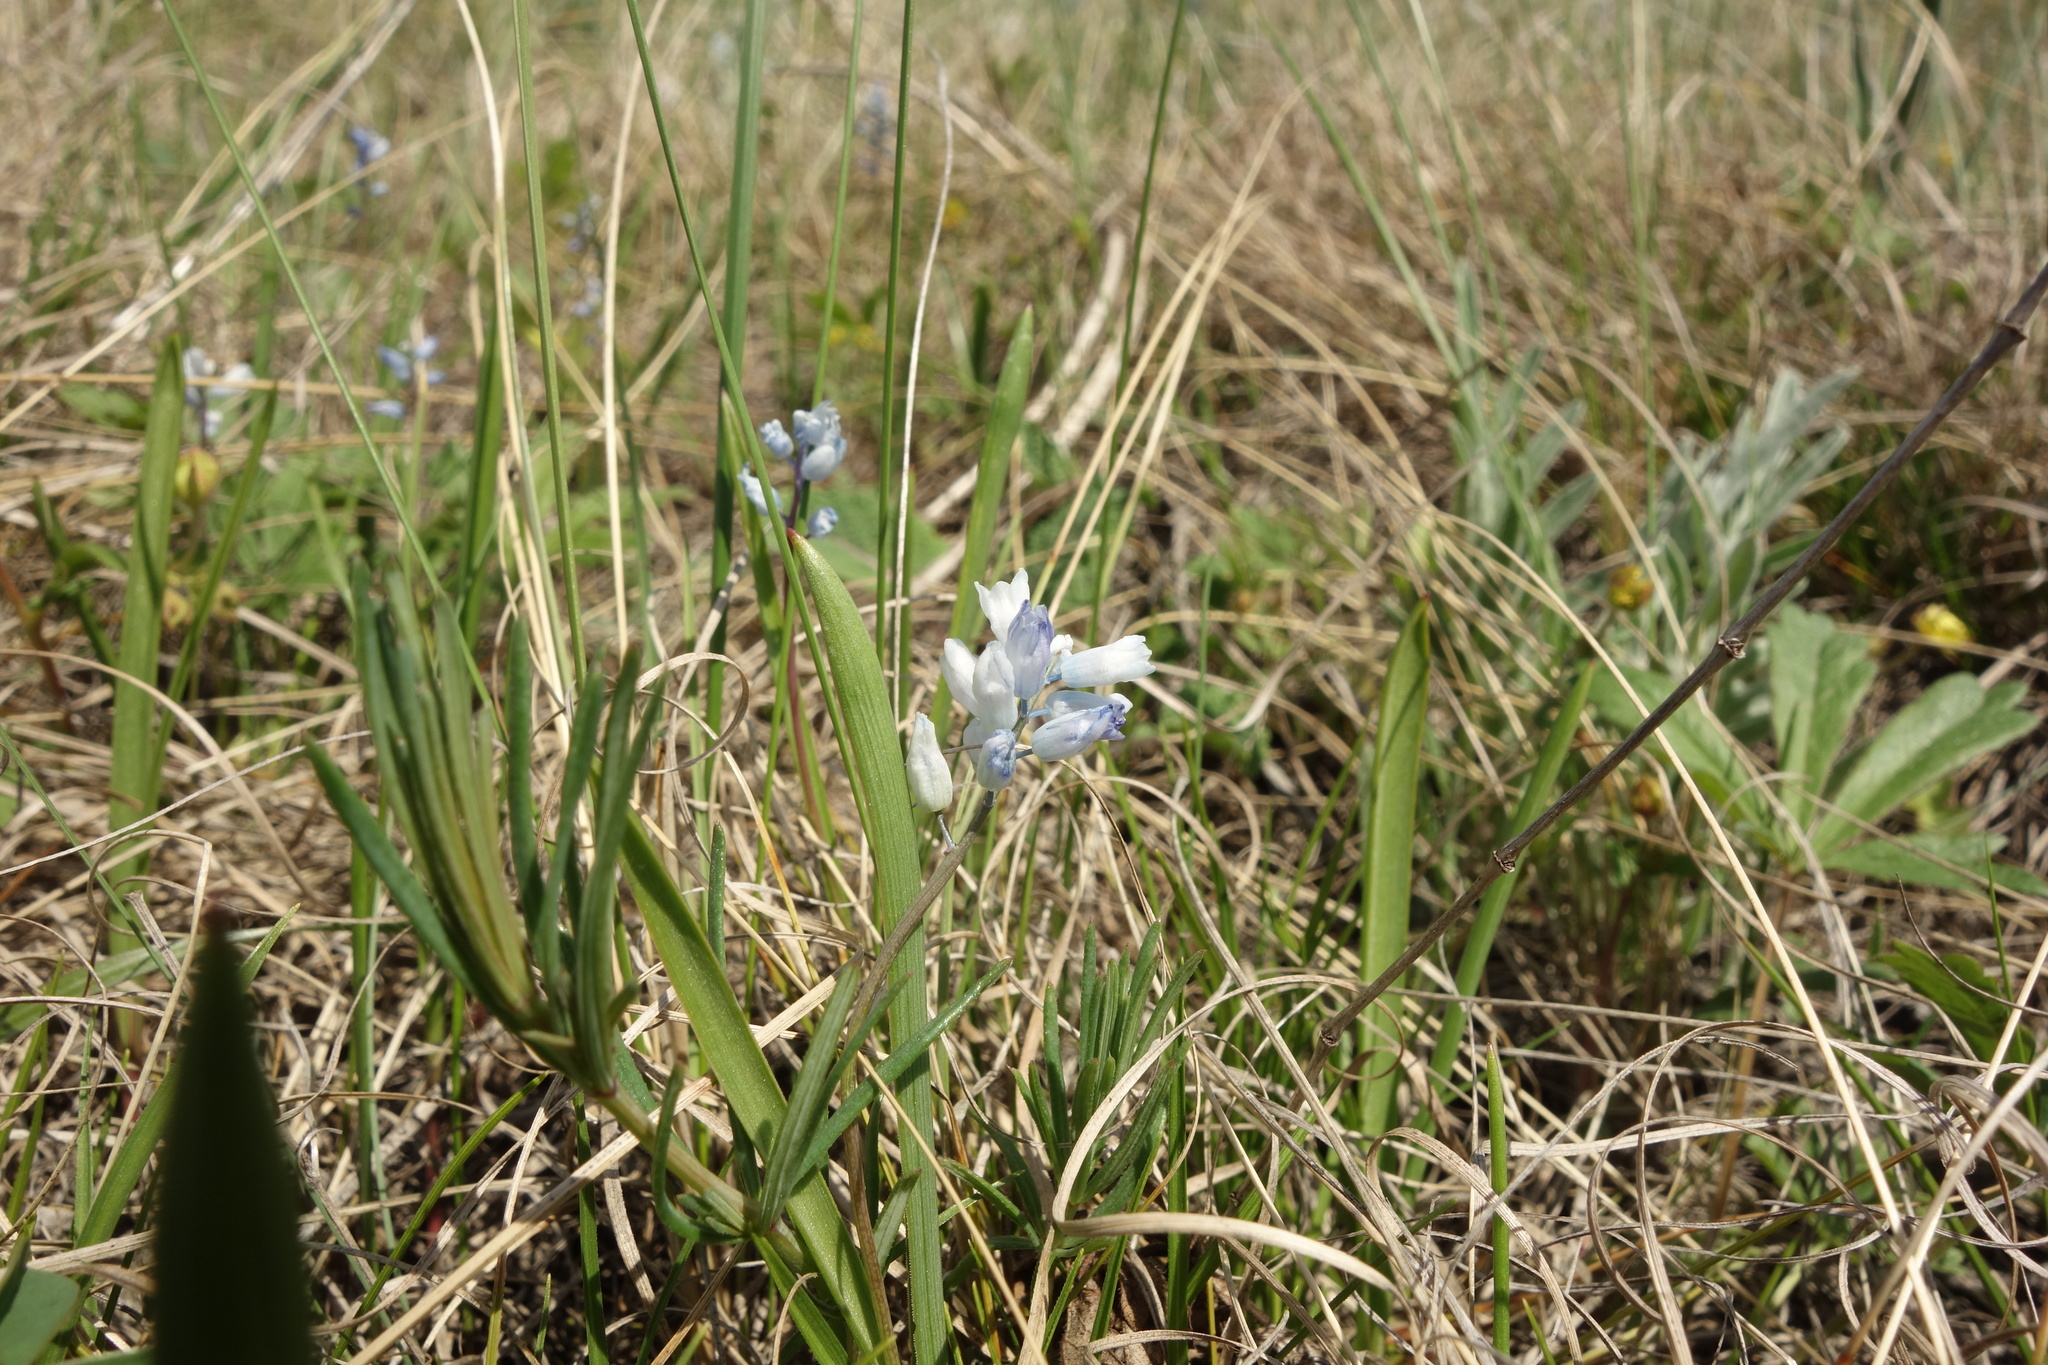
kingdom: Plantae
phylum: Tracheophyta
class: Liliopsida
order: Asparagales
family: Asparagaceae
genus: Hyacinthella
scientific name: Hyacinthella leucophaea
